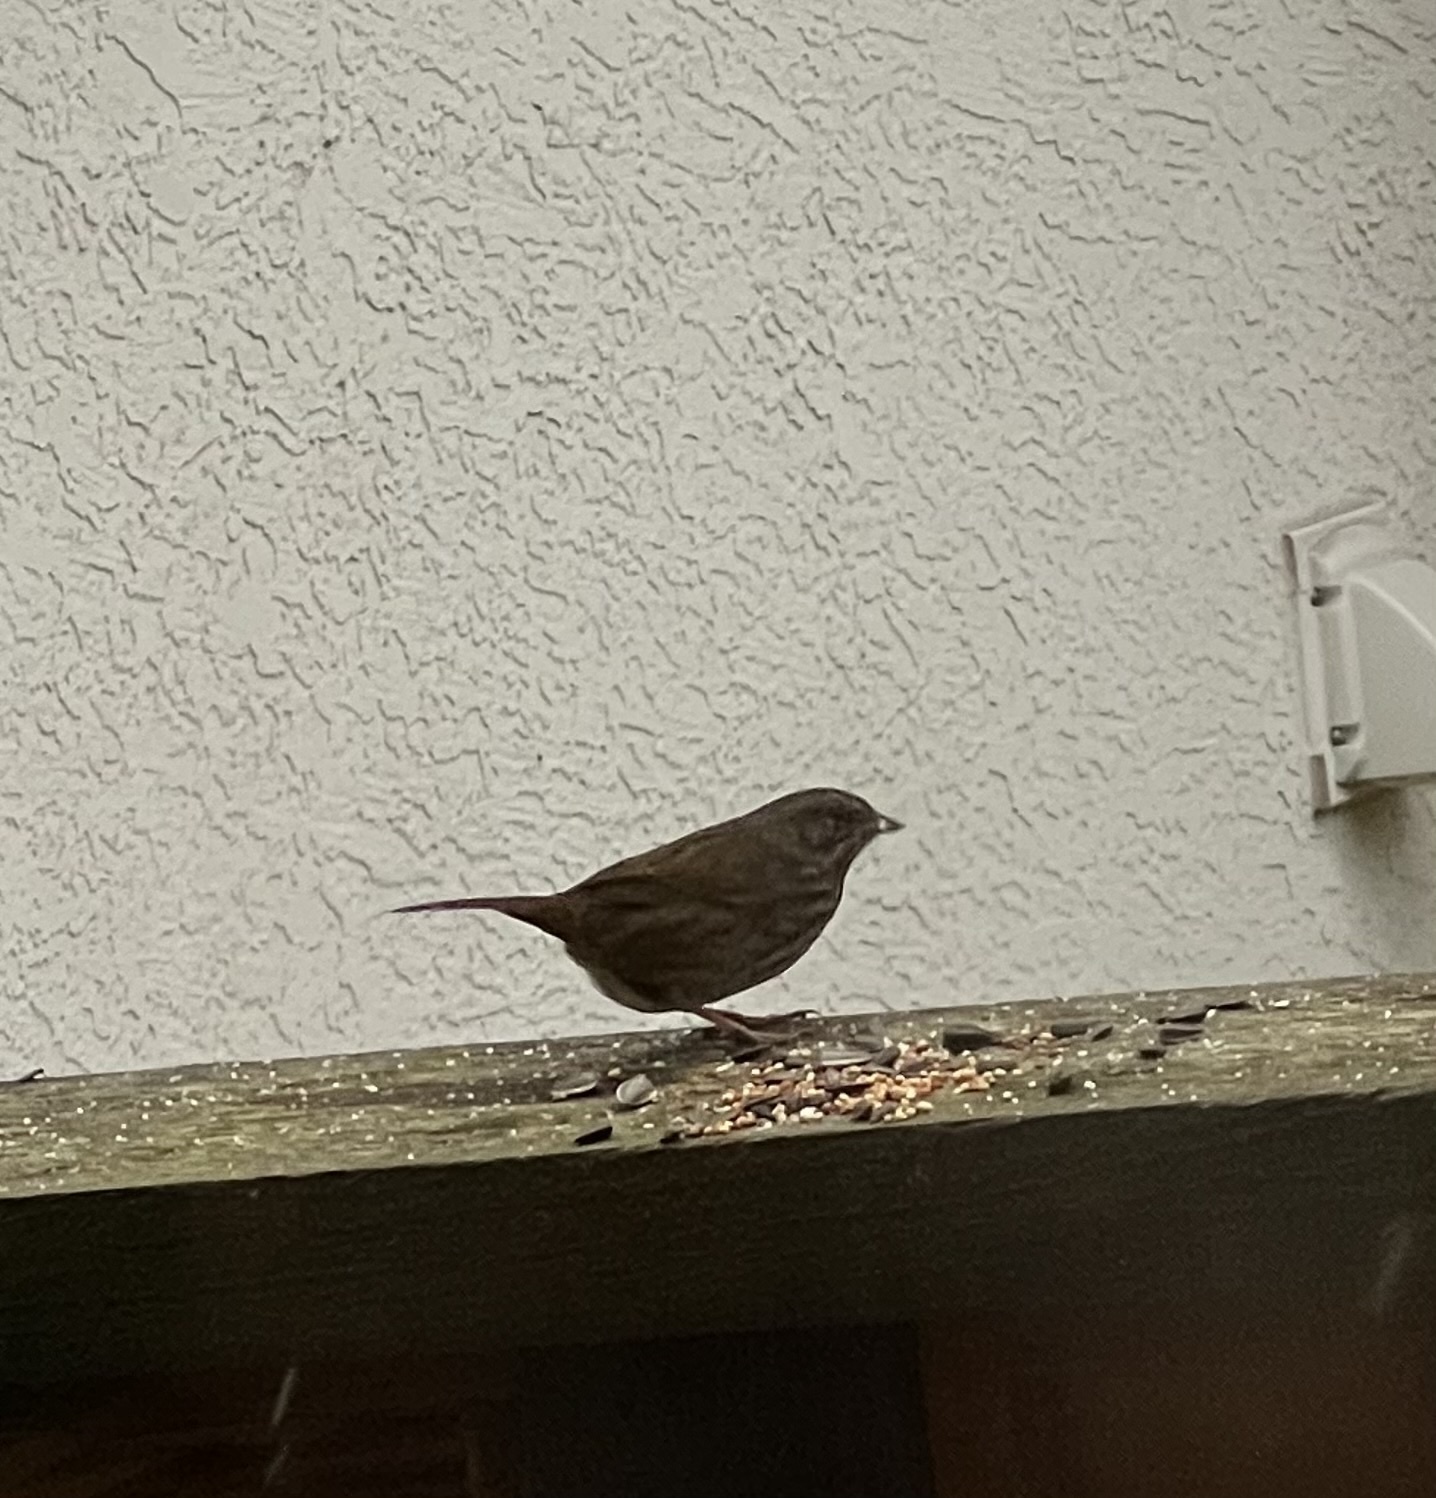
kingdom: Animalia
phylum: Chordata
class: Aves
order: Passeriformes
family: Passerellidae
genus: Melospiza
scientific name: Melospiza melodia
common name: Song sparrow
